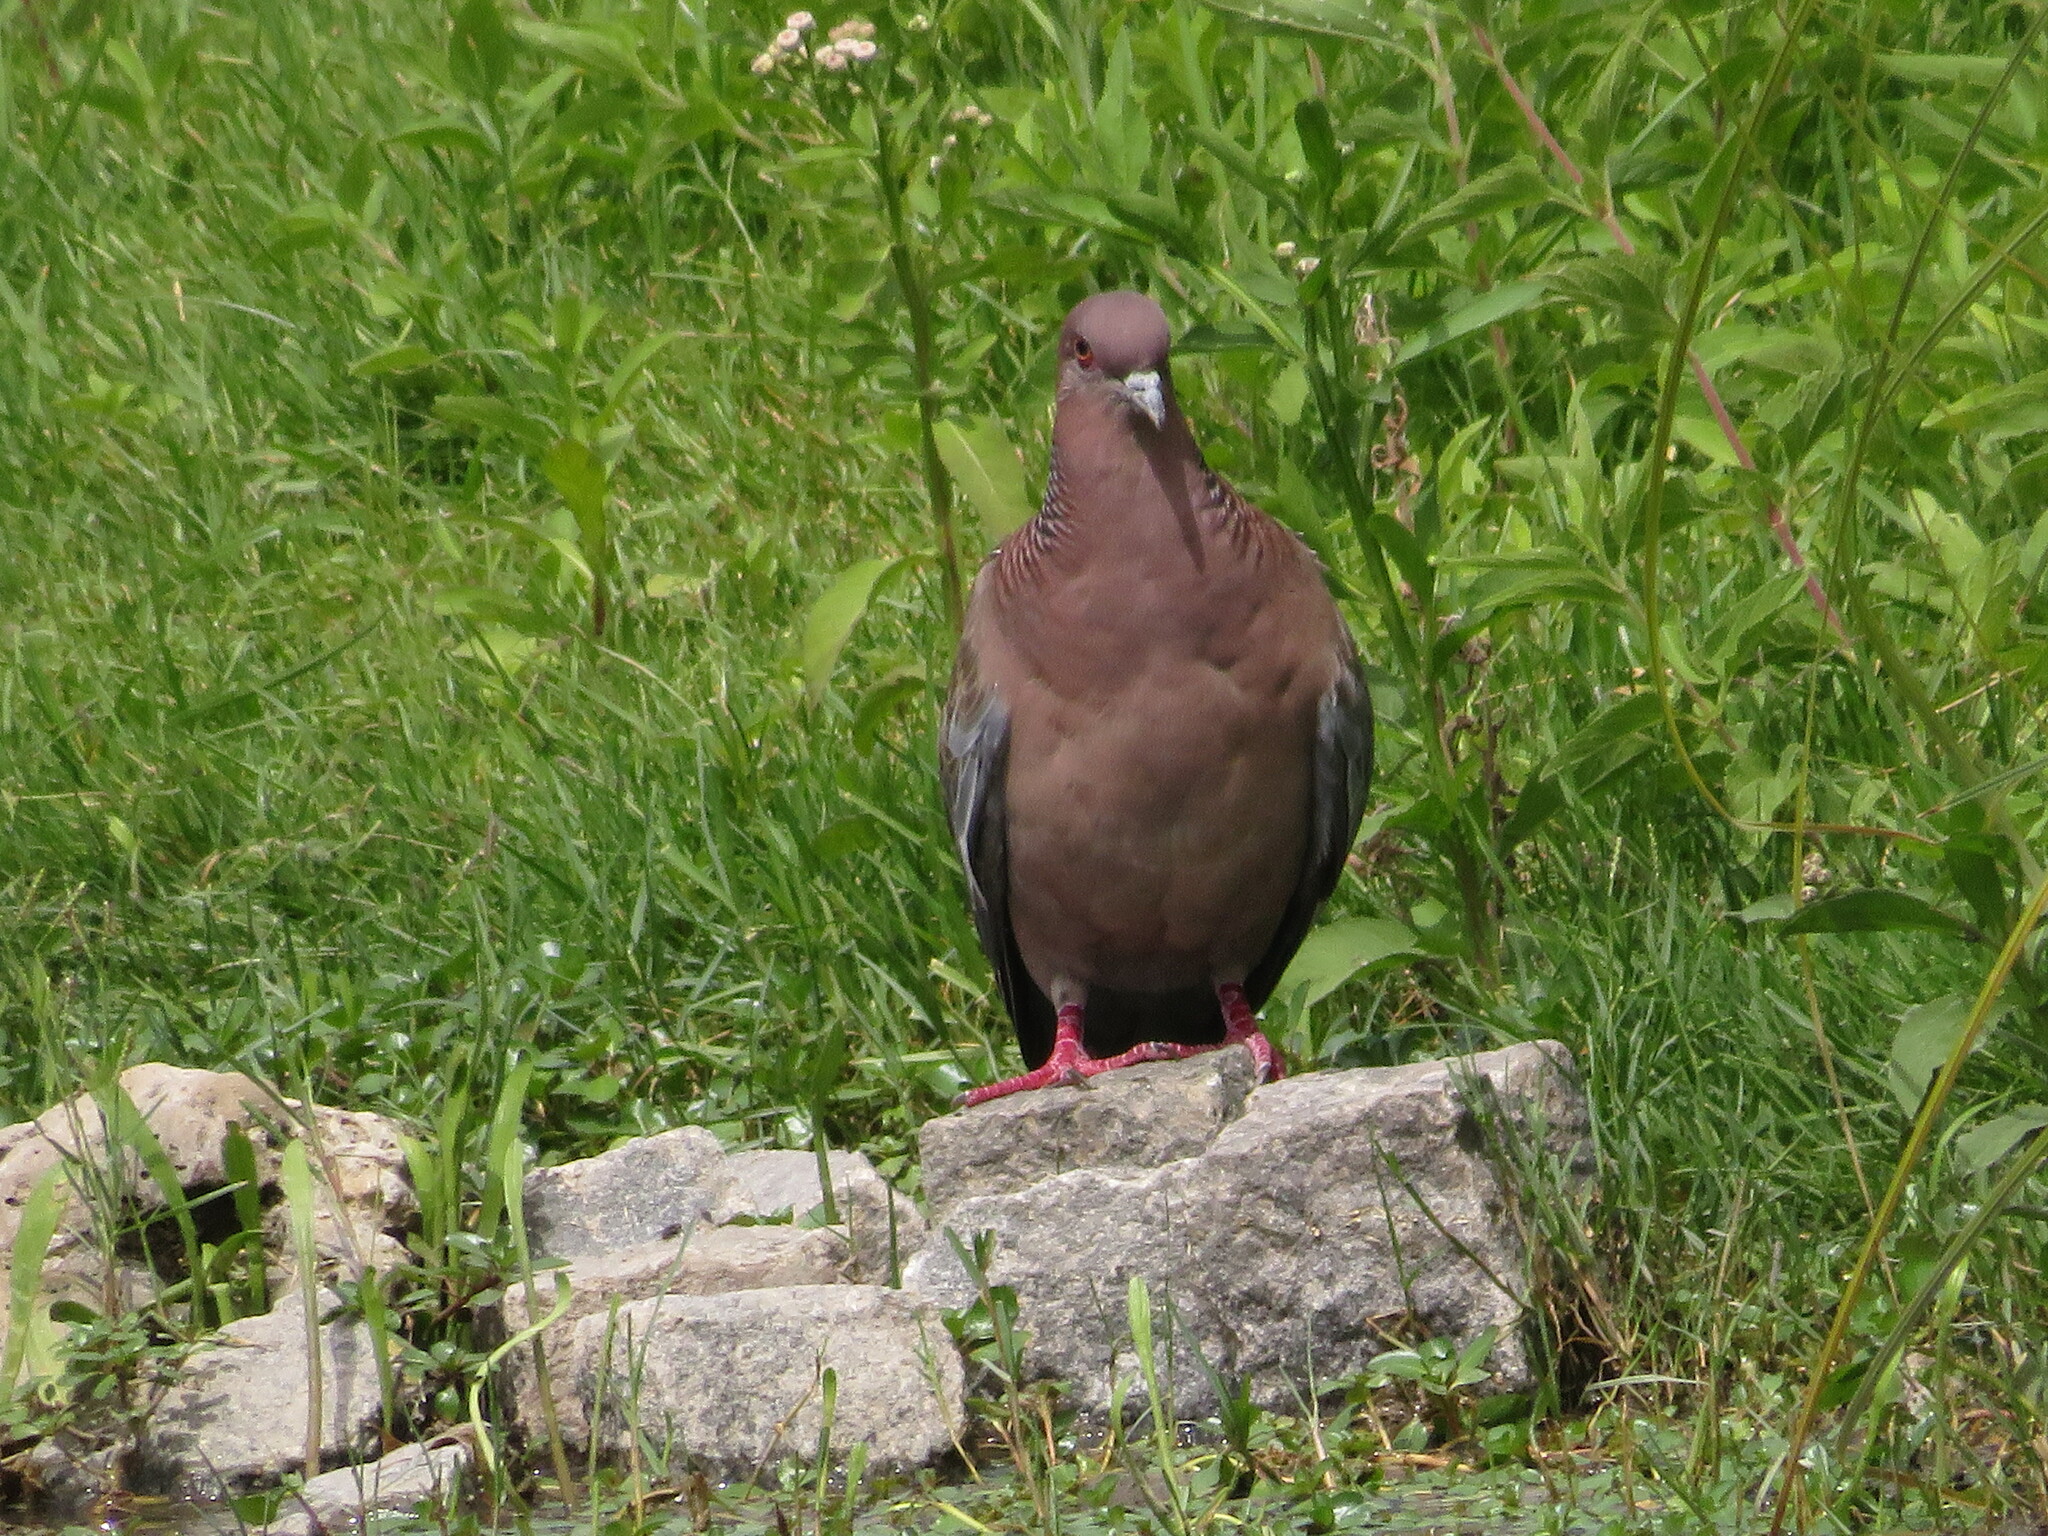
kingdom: Animalia
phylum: Chordata
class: Aves
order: Columbiformes
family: Columbidae
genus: Patagioenas
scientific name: Patagioenas picazuro
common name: Picazuro pigeon
